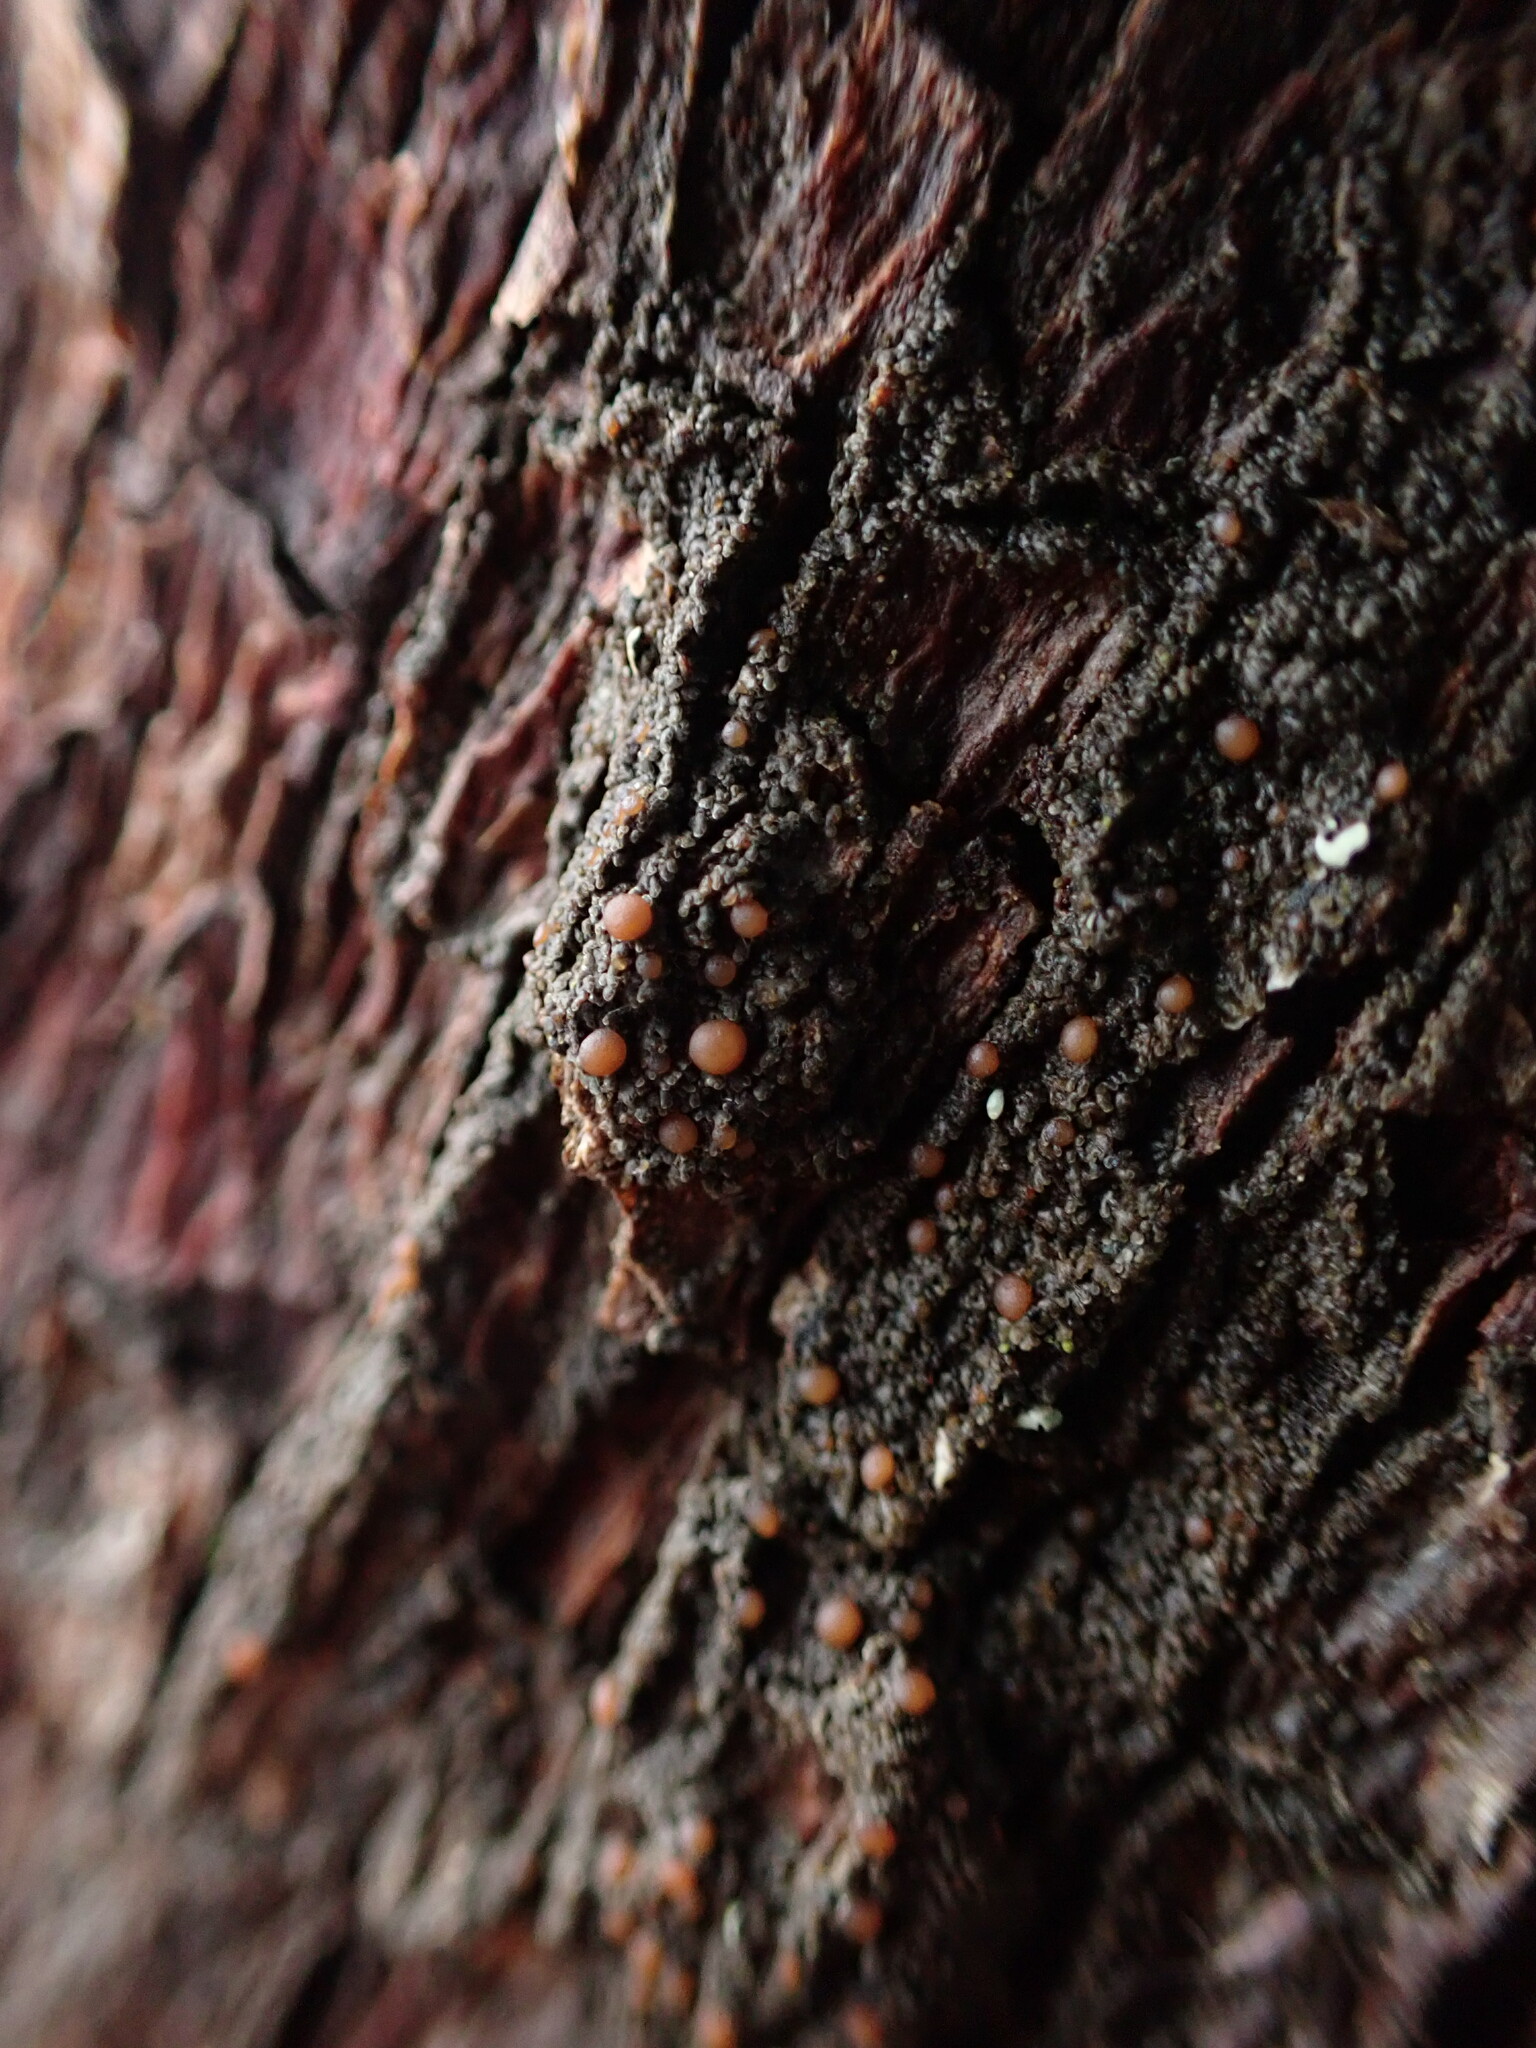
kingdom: Fungi
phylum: Ascomycota
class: Lecanoromycetes
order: Peltigerales
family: Vahliellaceae
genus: Vahliella
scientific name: Vahliella saubinetii
